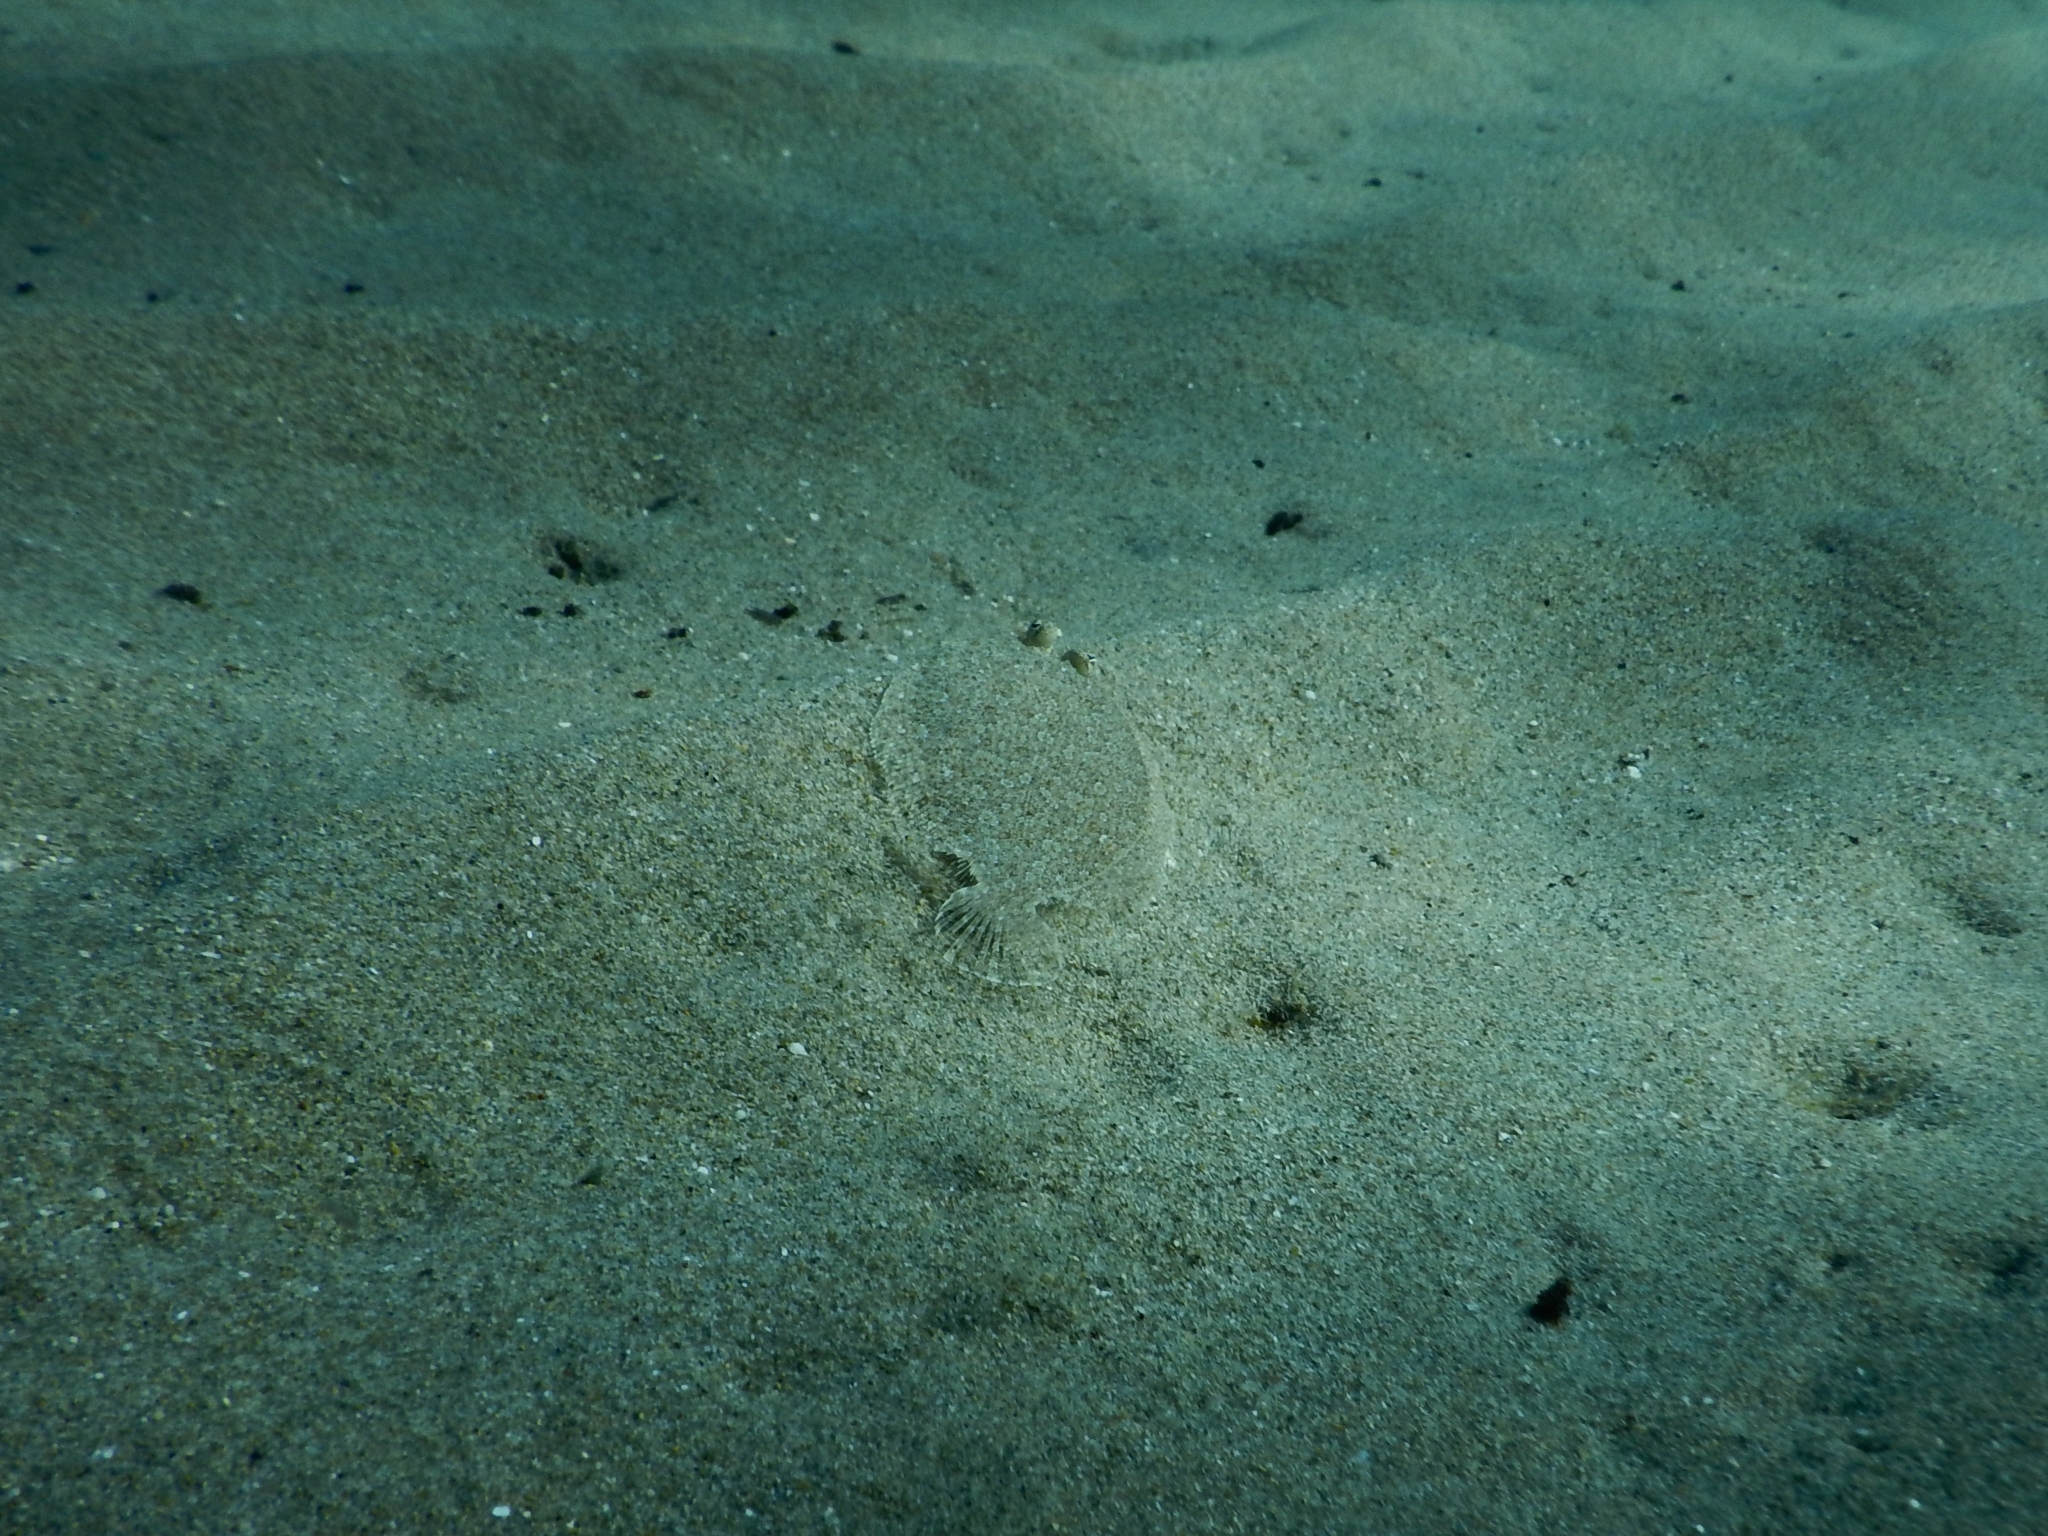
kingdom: Animalia
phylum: Chordata
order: Pleuronectiformes
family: Bothidae
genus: Bothus
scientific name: Bothus podas
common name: Wide-eyed flounder
